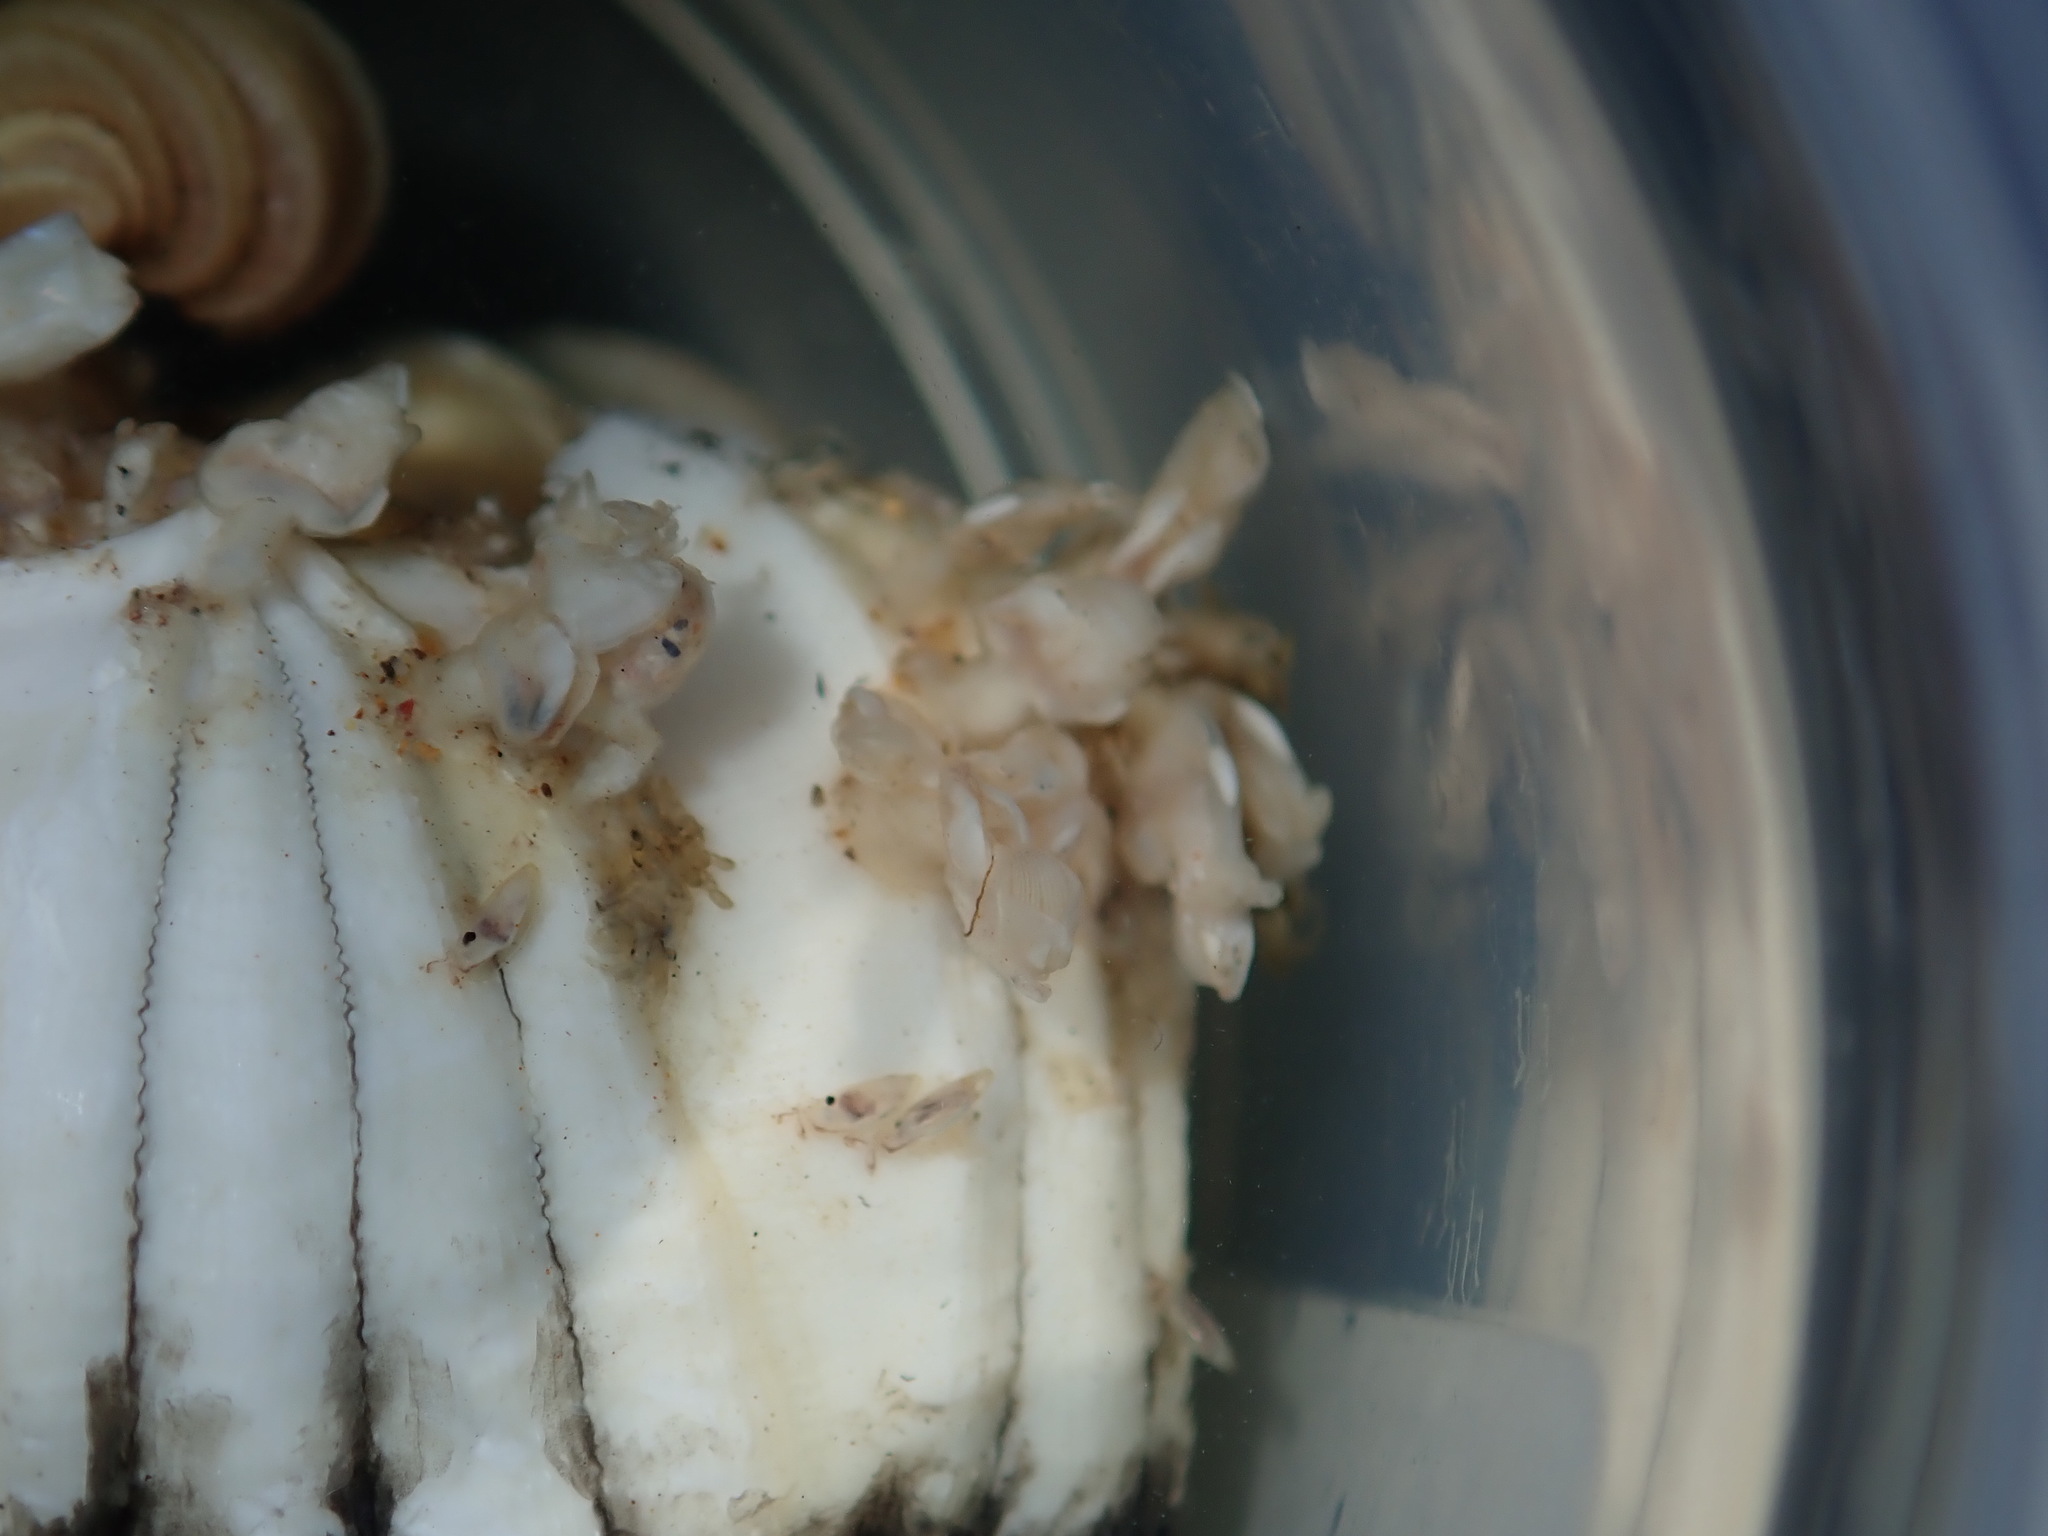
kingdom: Animalia
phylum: Arthropoda
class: Maxillopoda
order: Pedunculata
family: Lepadidae
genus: Conchoderma
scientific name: Conchoderma auritum
